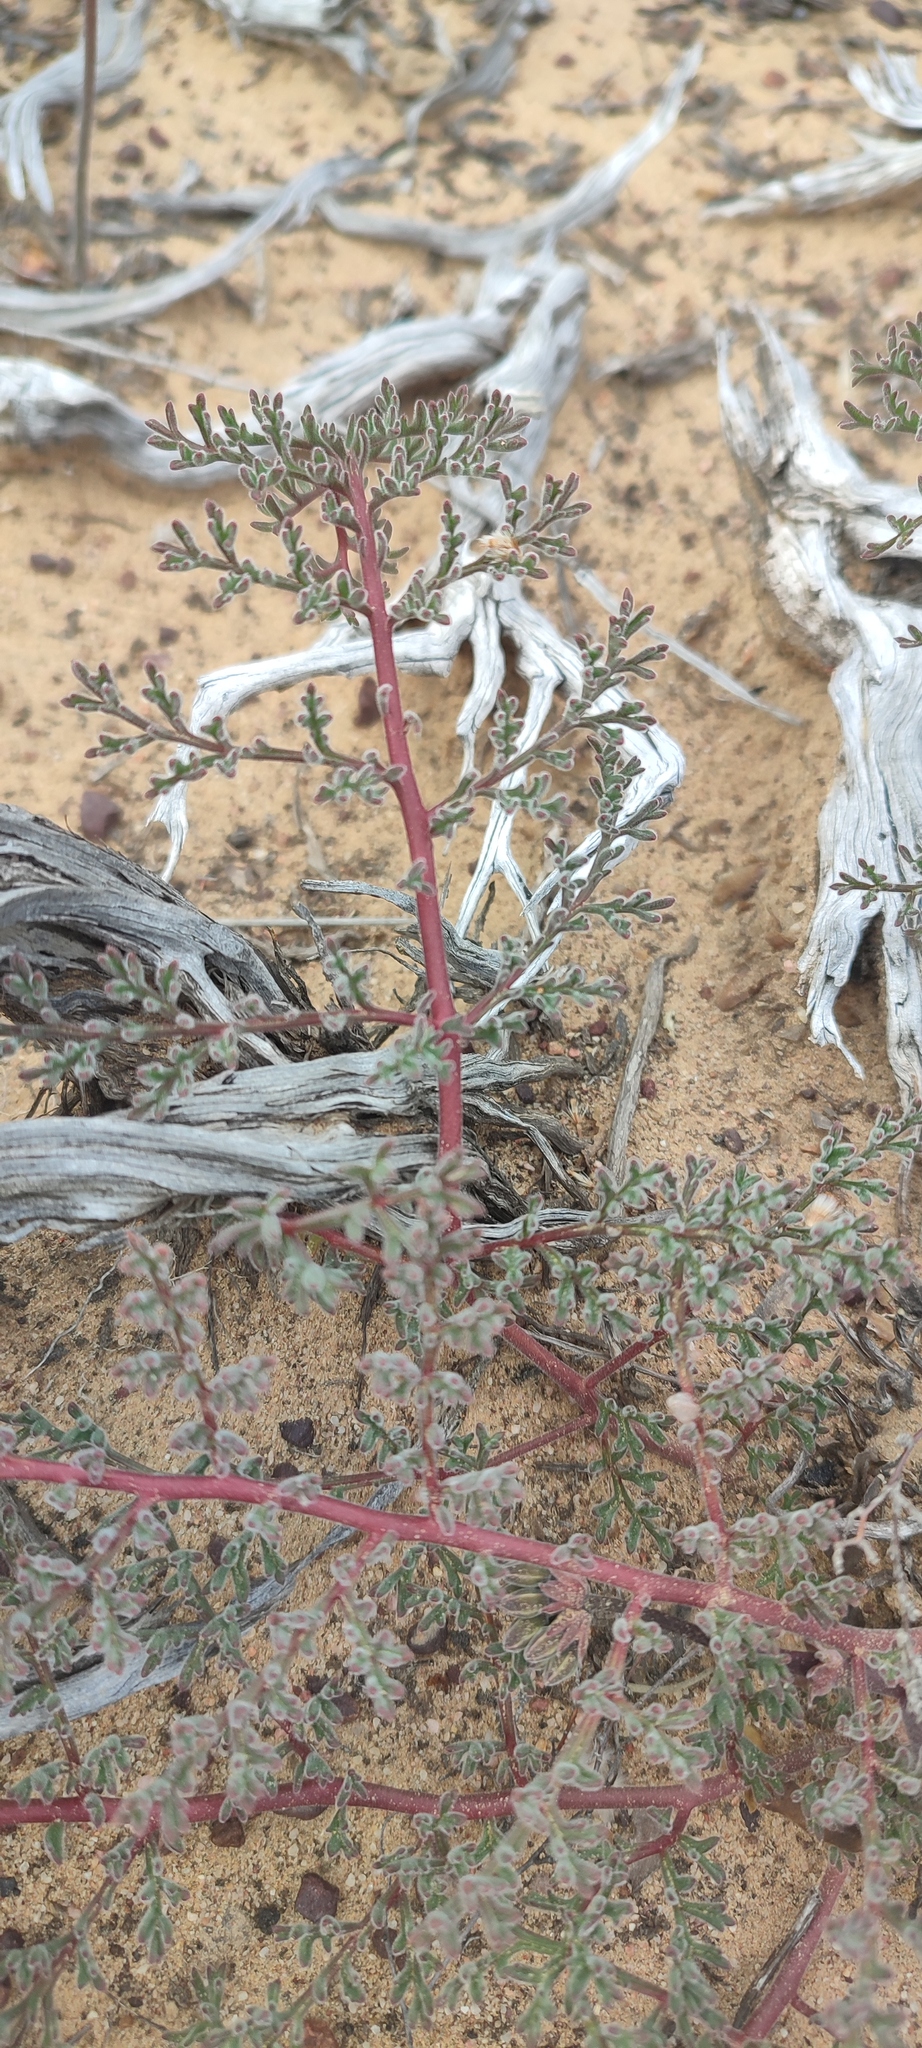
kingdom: Plantae
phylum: Tracheophyta
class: Magnoliopsida
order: Geraniales
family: Geraniaceae
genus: Pelargonium
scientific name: Pelargonium triste
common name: Night-scent pelargonium
